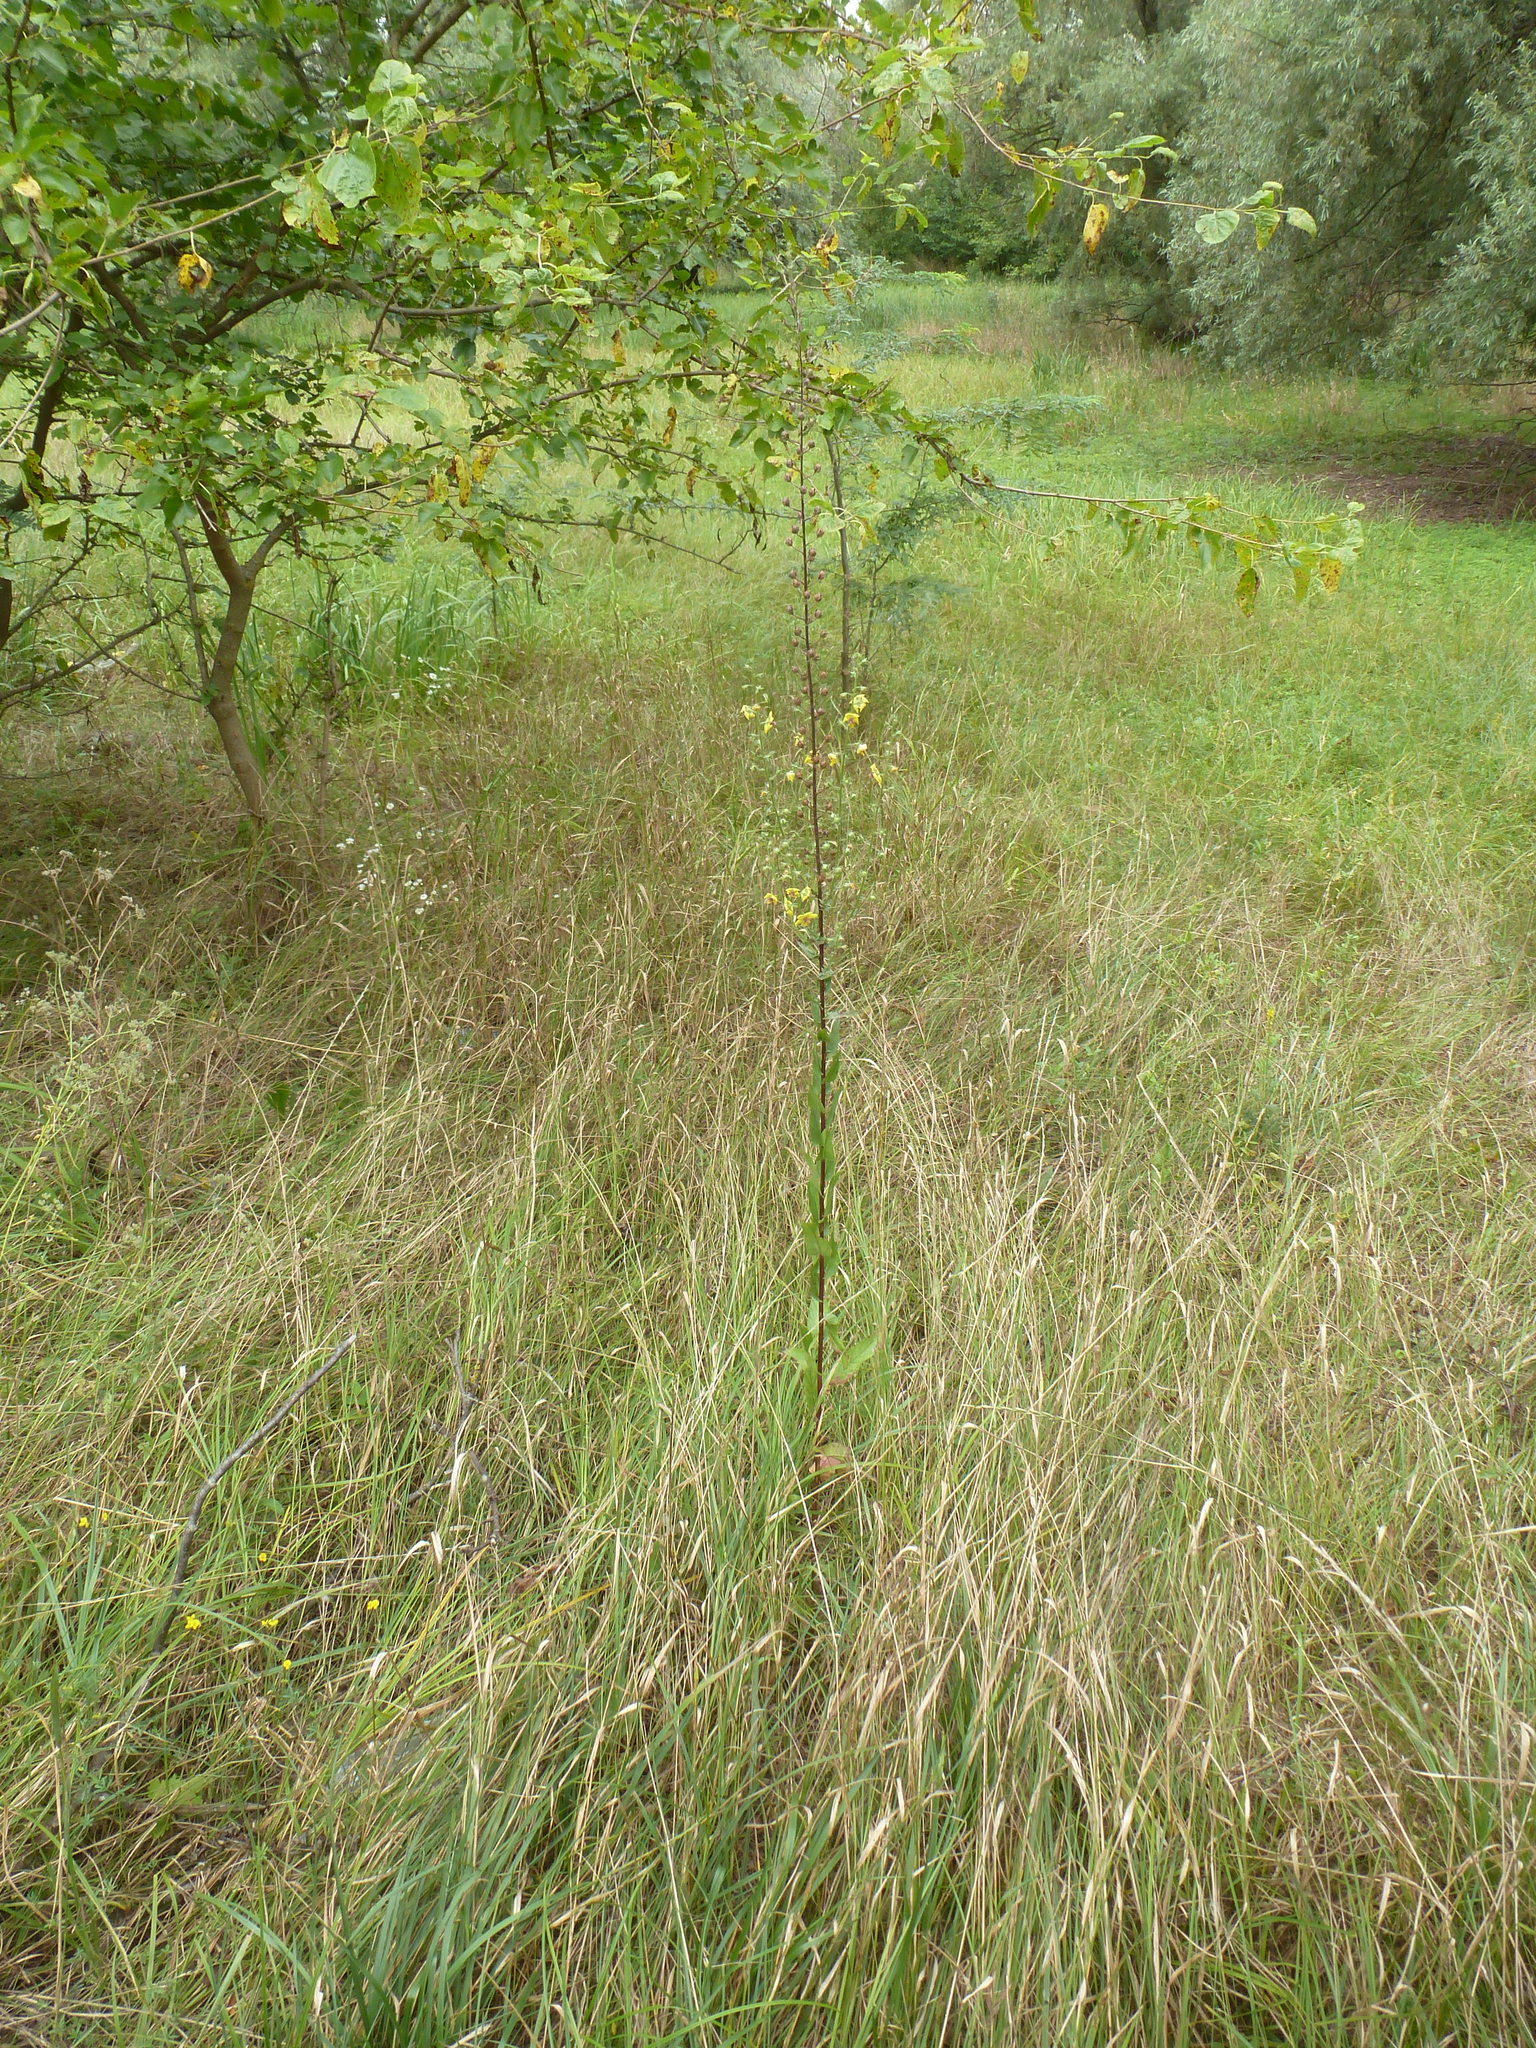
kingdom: Plantae
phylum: Tracheophyta
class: Magnoliopsida
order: Lamiales
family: Scrophulariaceae
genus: Verbascum
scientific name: Verbascum blattaria
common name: Moth mullein
